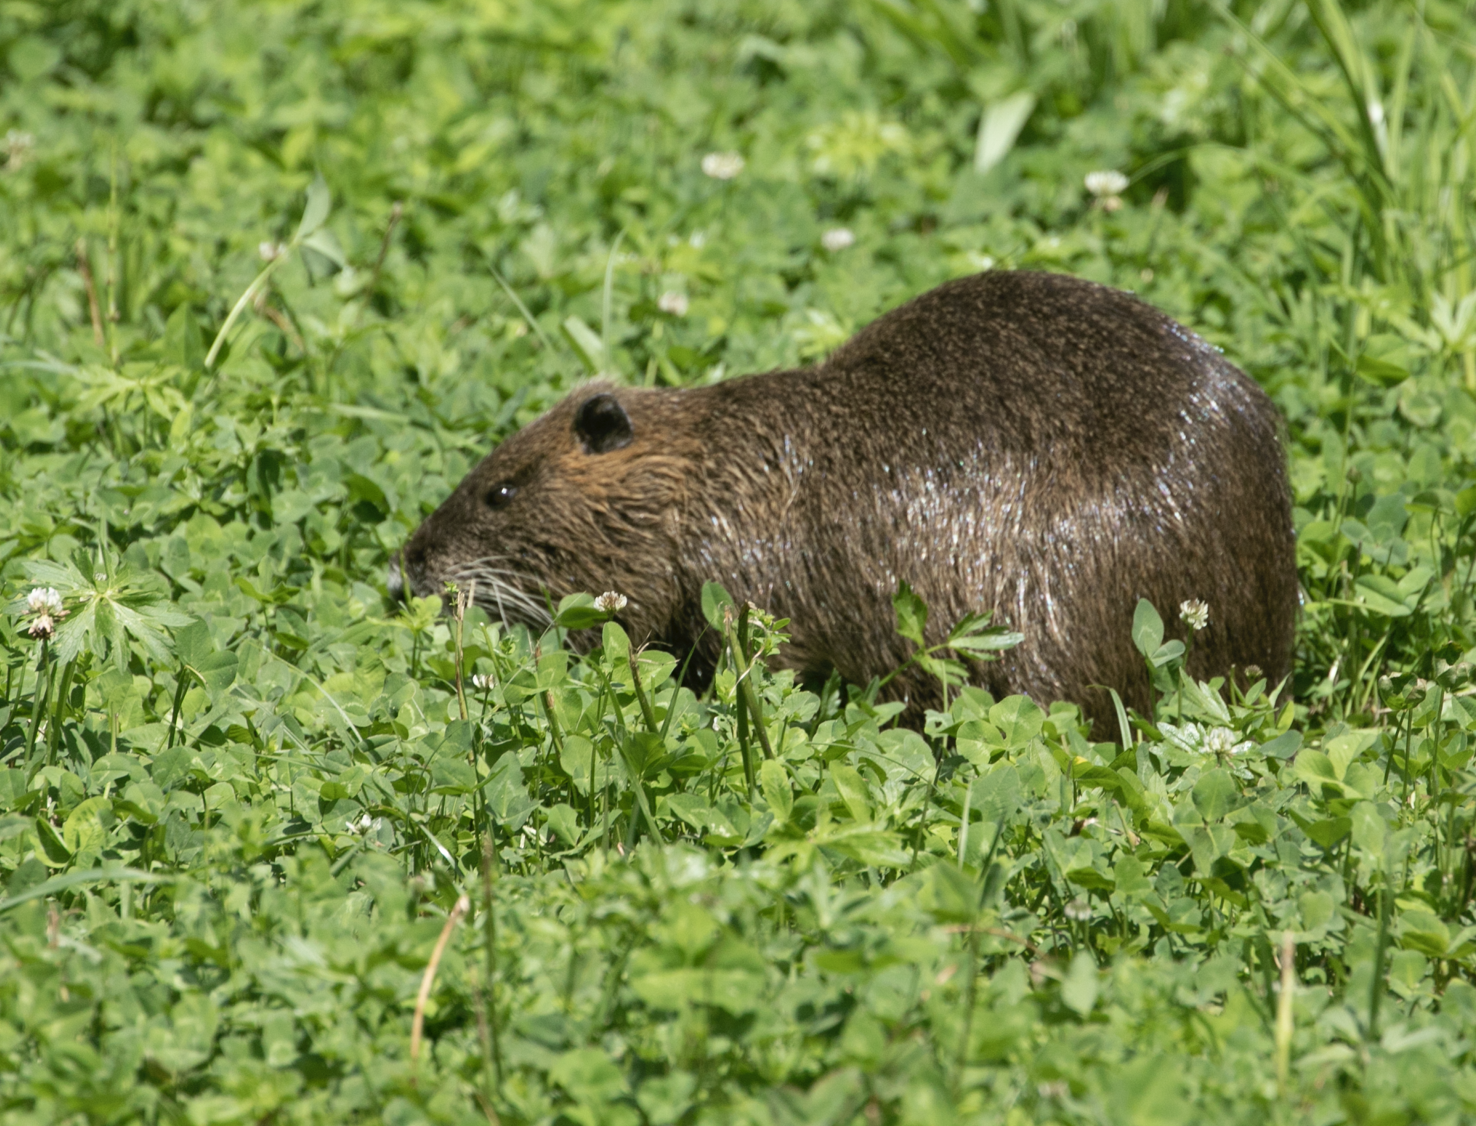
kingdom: Animalia
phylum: Chordata
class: Mammalia
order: Rodentia
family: Myocastoridae
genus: Myocastor
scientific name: Myocastor coypus
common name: Coypu
